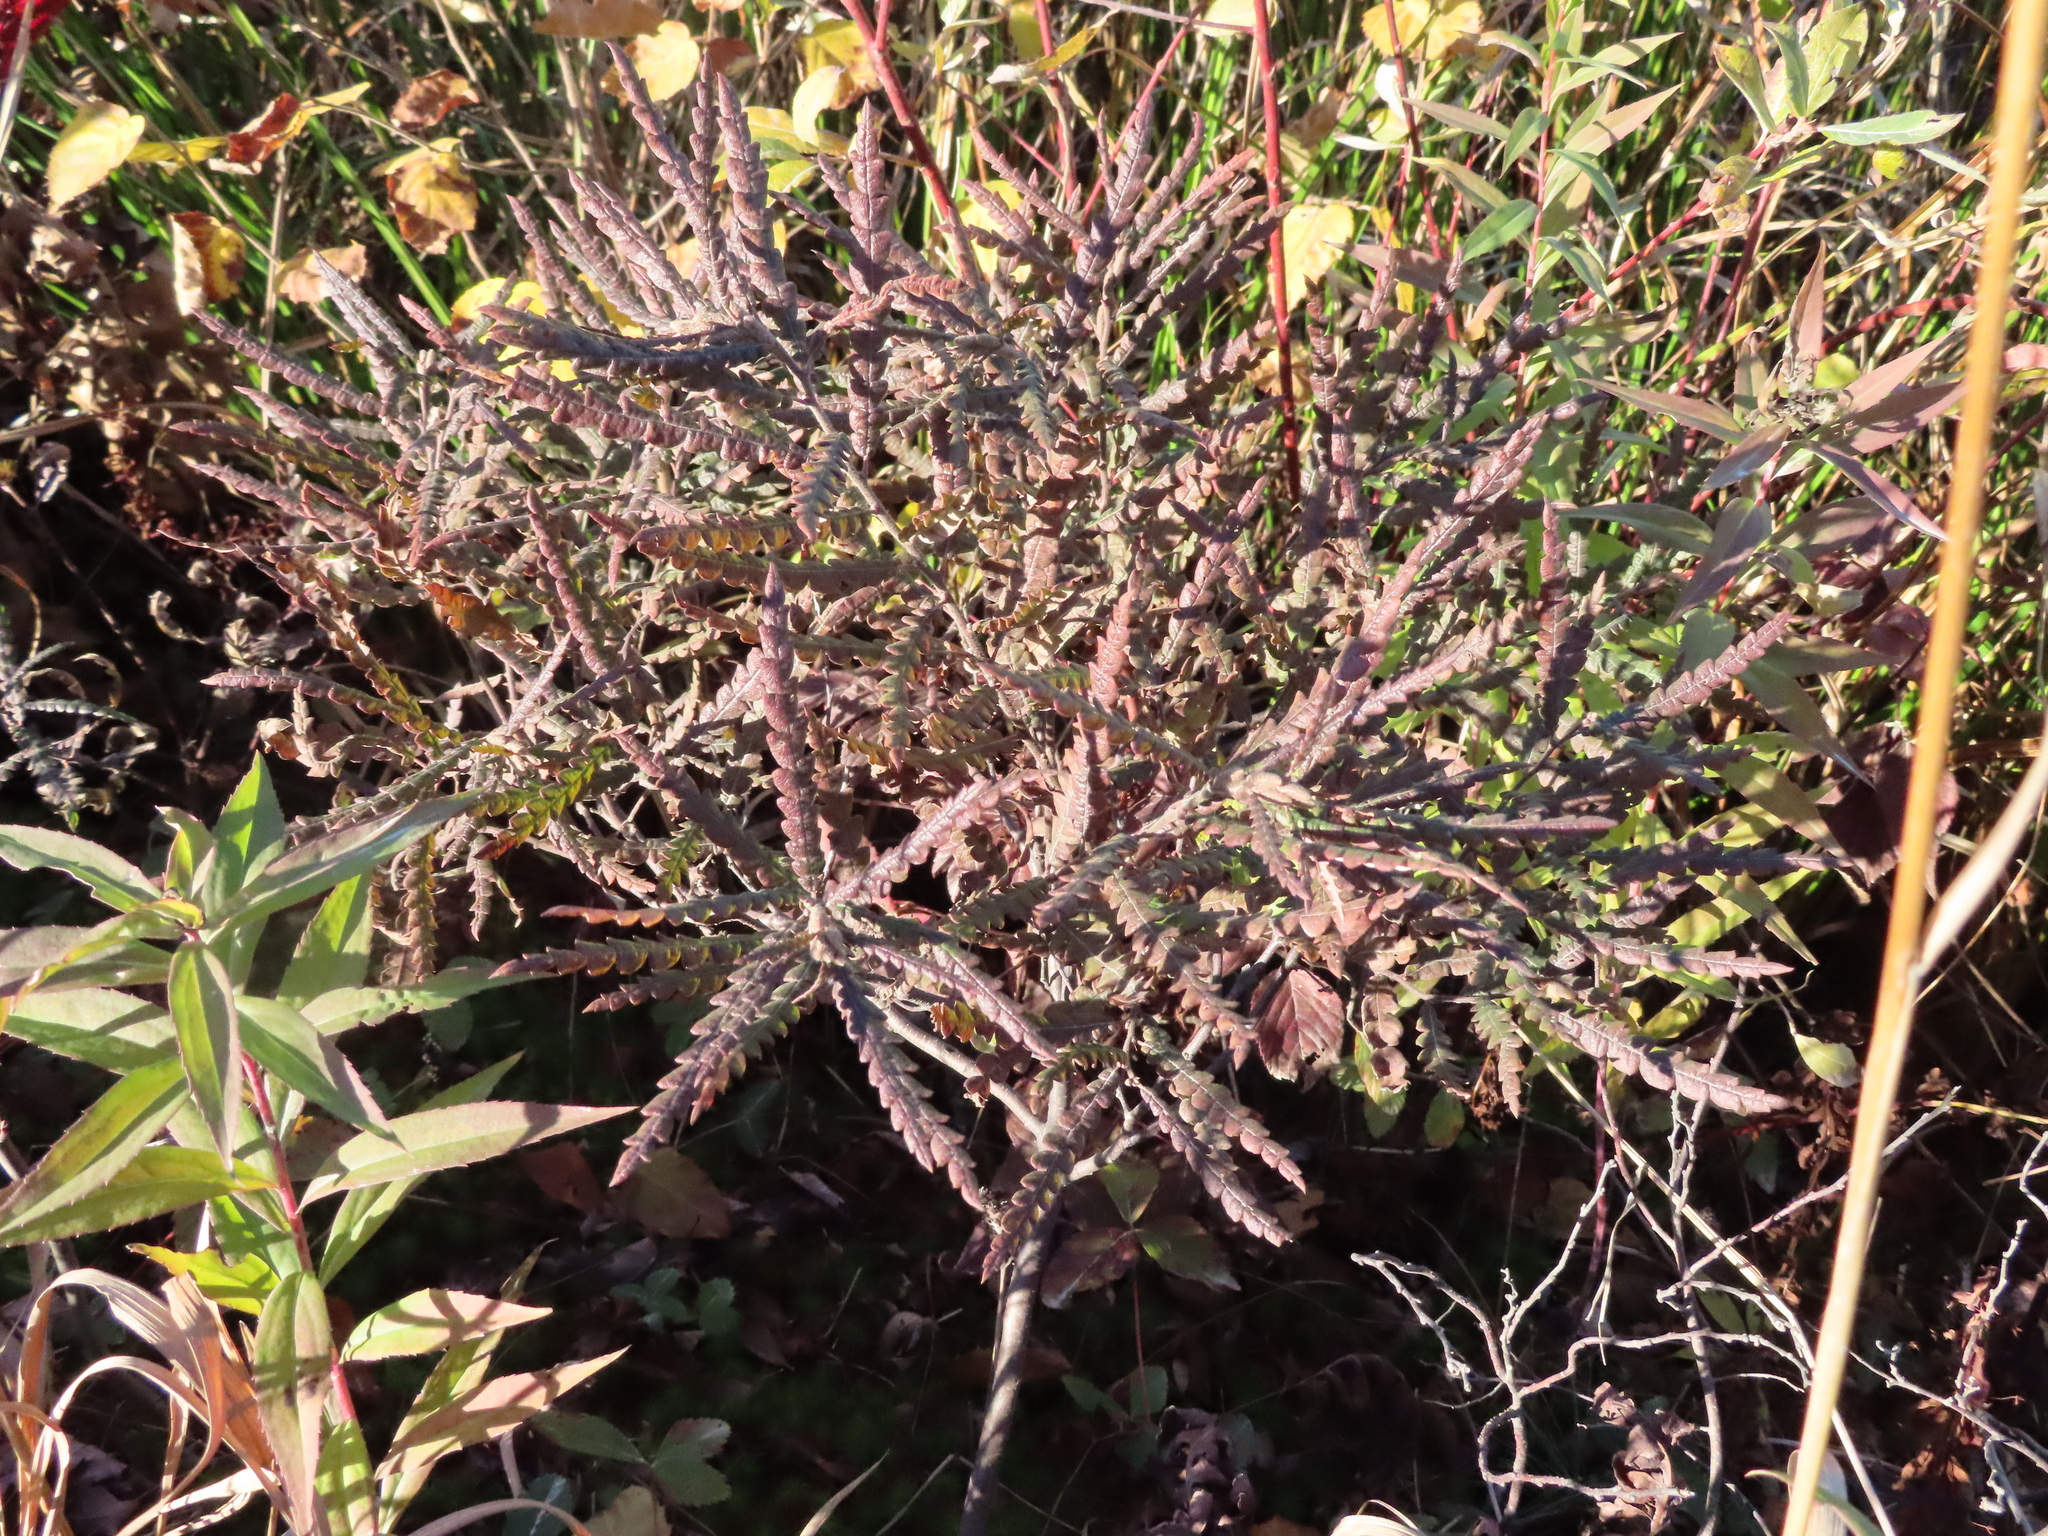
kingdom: Plantae
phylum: Tracheophyta
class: Magnoliopsida
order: Fagales
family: Myricaceae
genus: Comptonia
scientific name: Comptonia peregrina
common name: Sweet-fern
